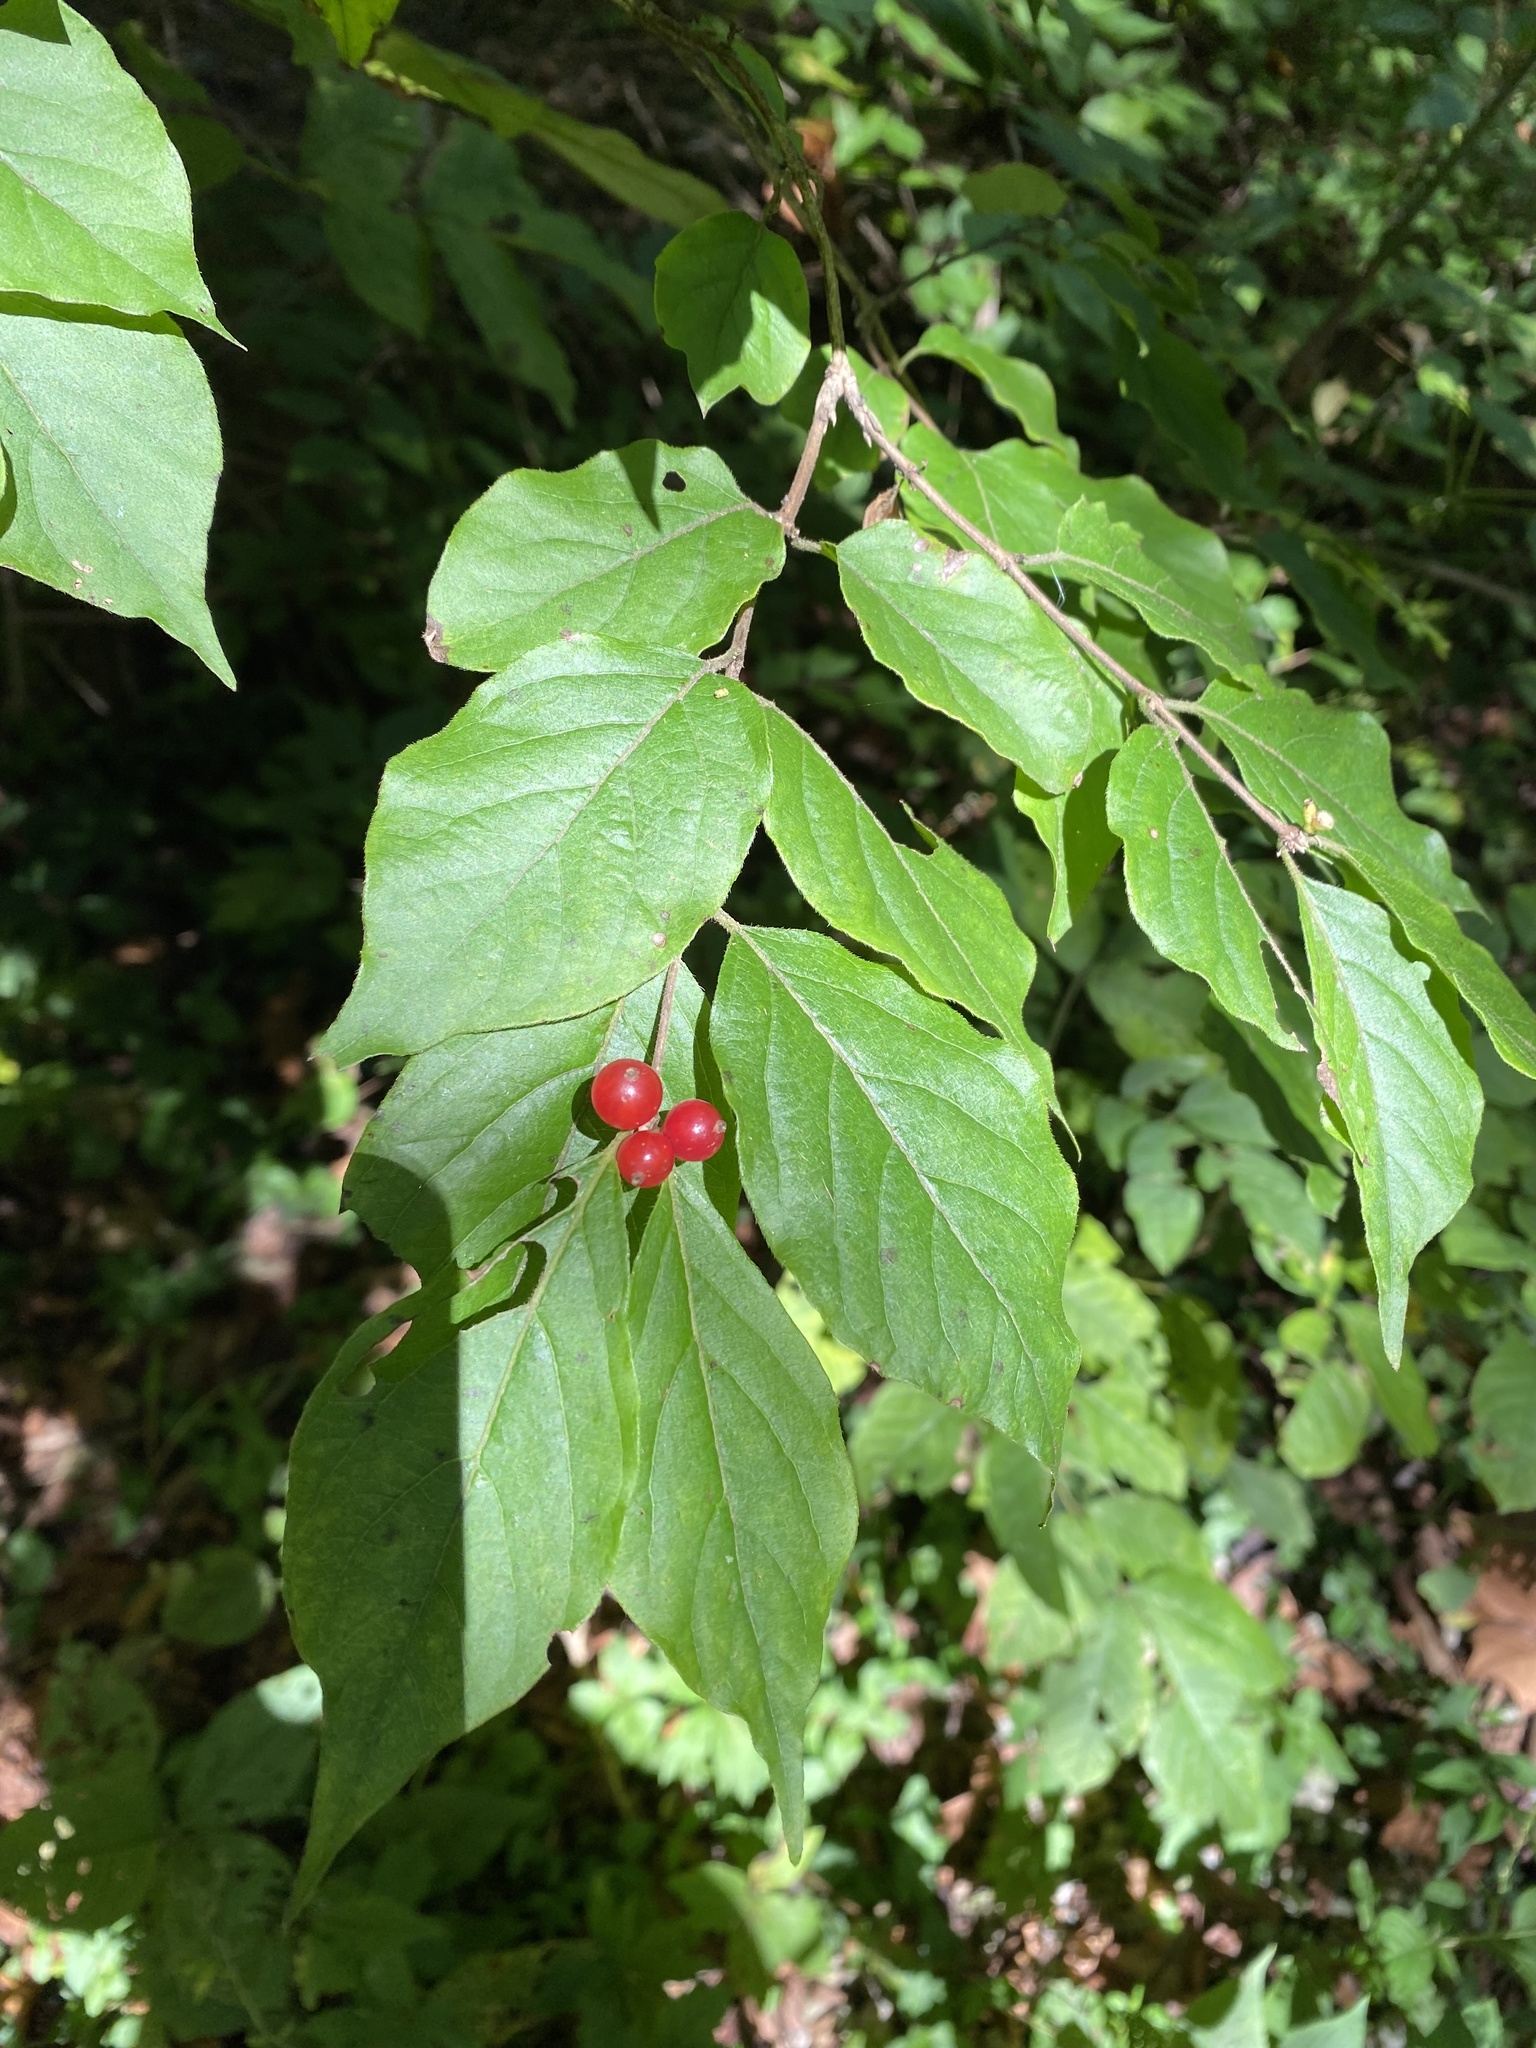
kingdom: Plantae
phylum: Tracheophyta
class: Magnoliopsida
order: Dipsacales
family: Caprifoliaceae
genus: Lonicera
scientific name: Lonicera maackii
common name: Amur honeysuckle
